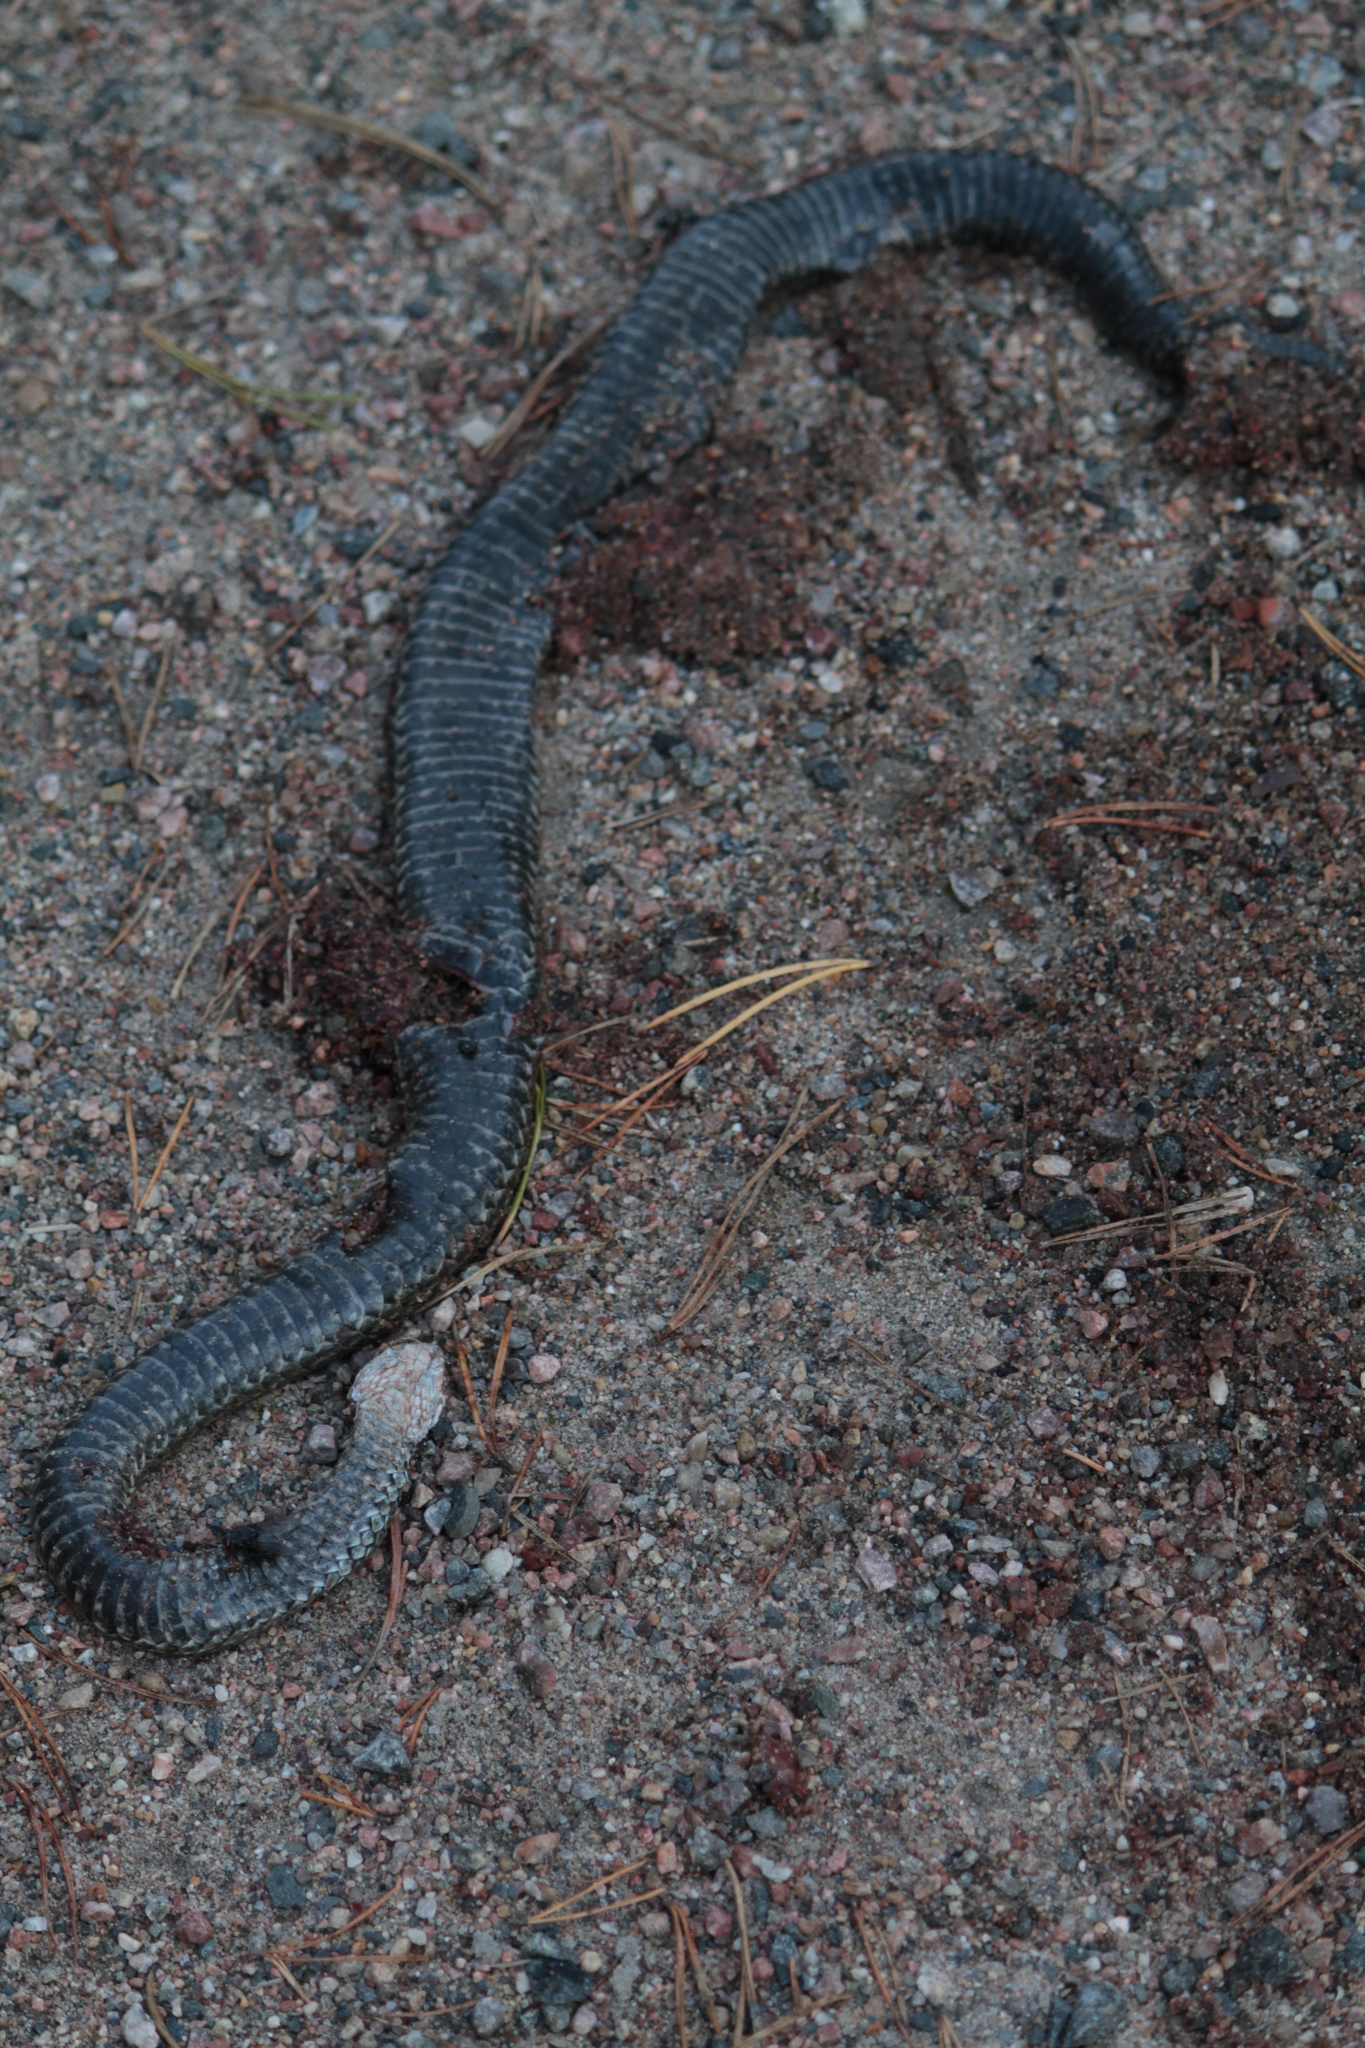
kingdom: Animalia
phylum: Chordata
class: Squamata
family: Viperidae
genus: Vipera
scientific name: Vipera berus
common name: Adder
